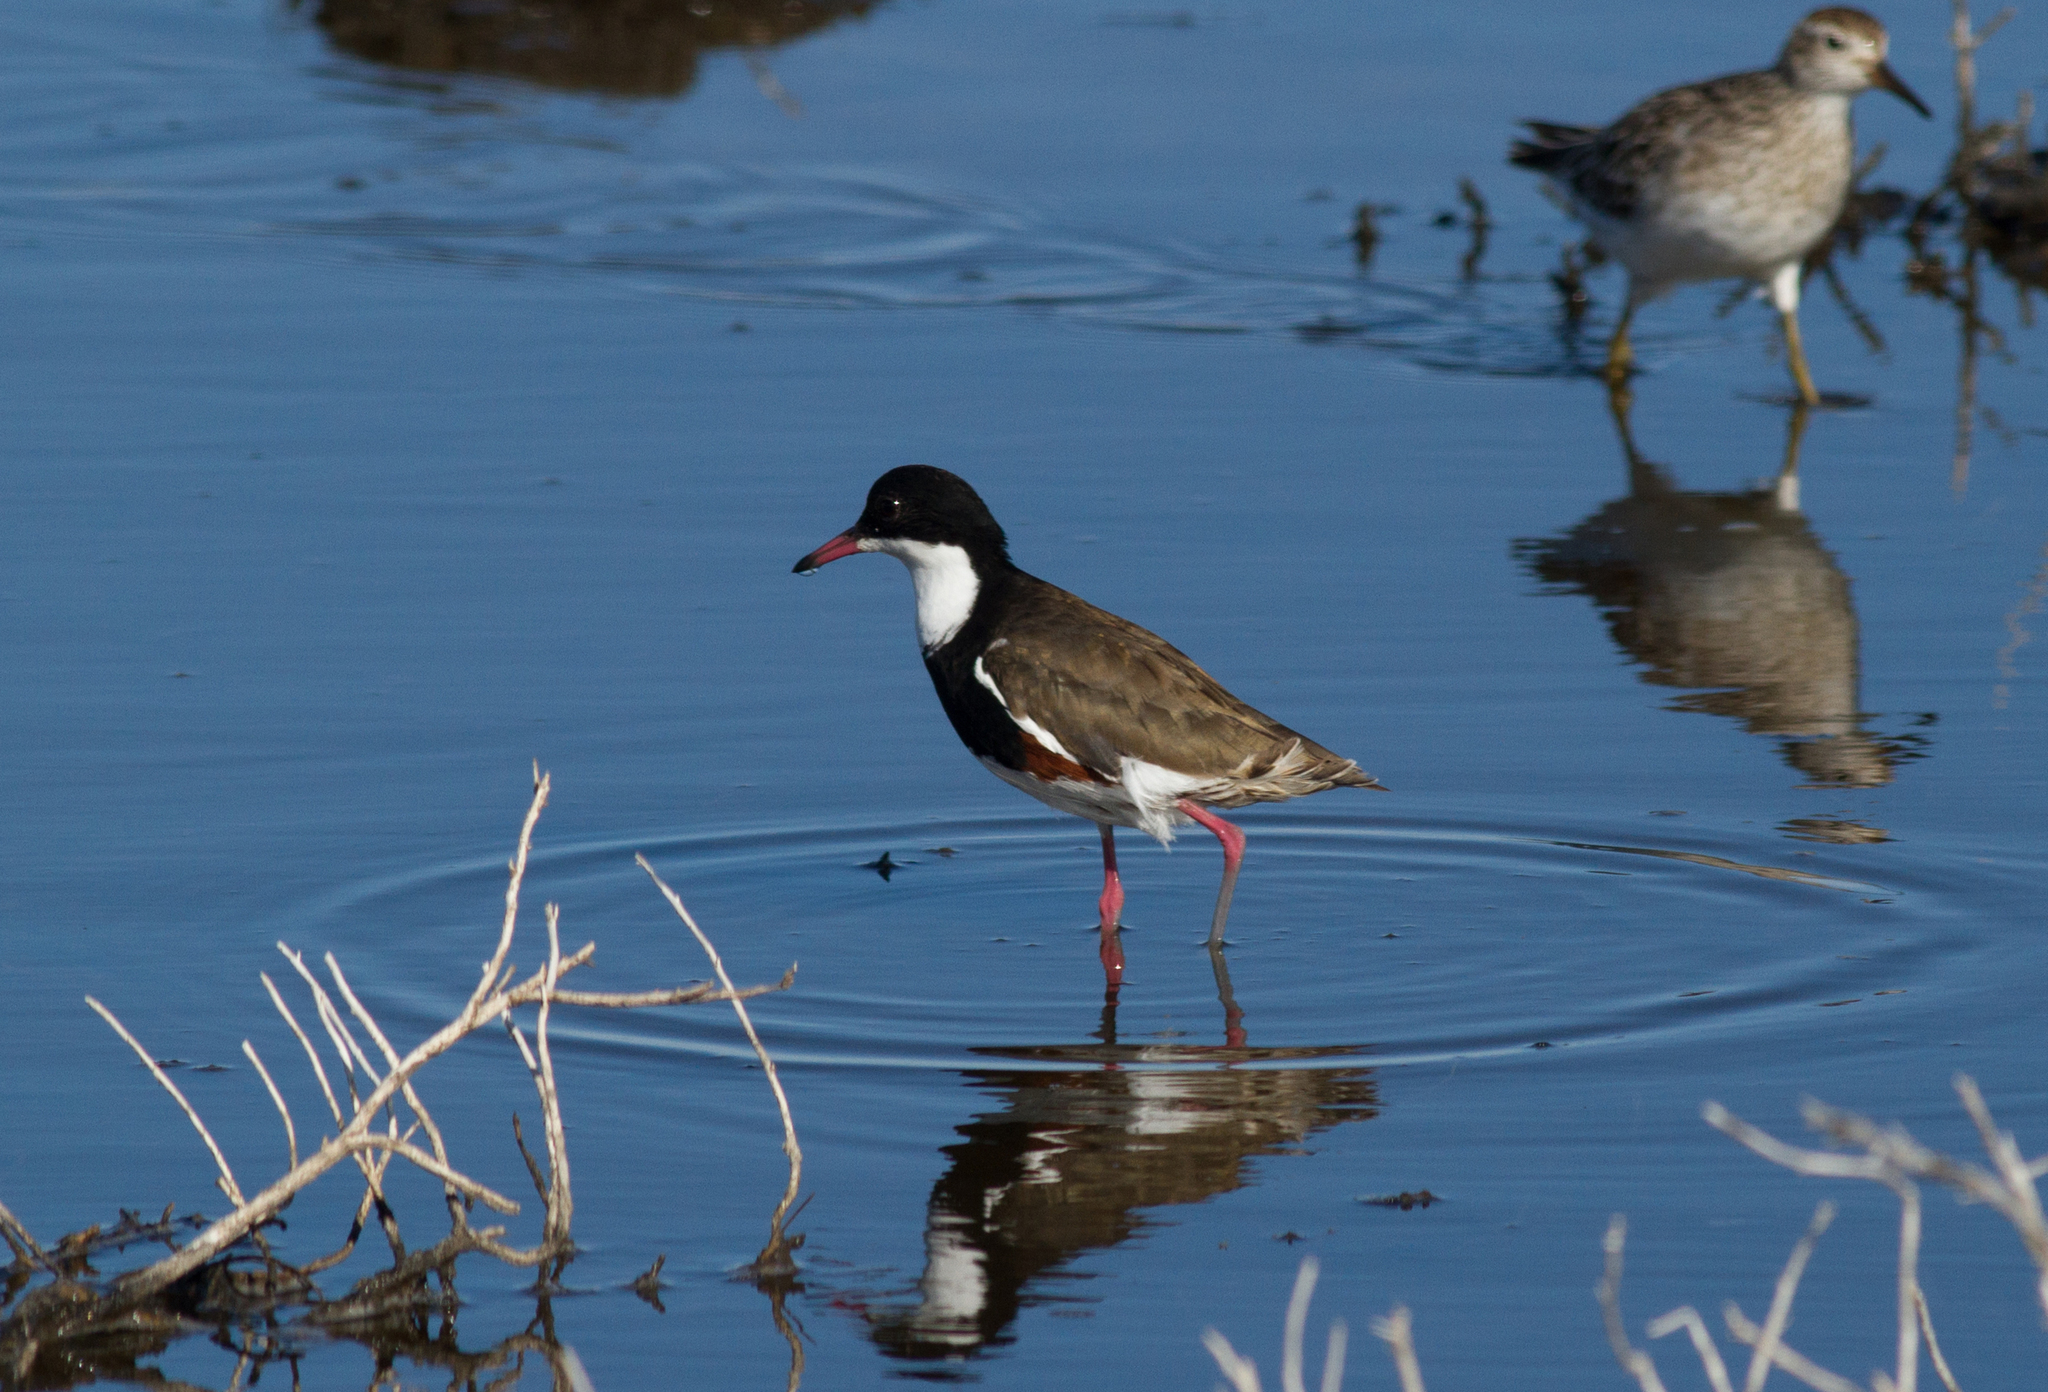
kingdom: Animalia
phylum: Chordata
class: Aves
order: Charadriiformes
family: Charadriidae
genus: Erythrogonys
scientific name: Erythrogonys cinctus
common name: Red-kneed dotterel
